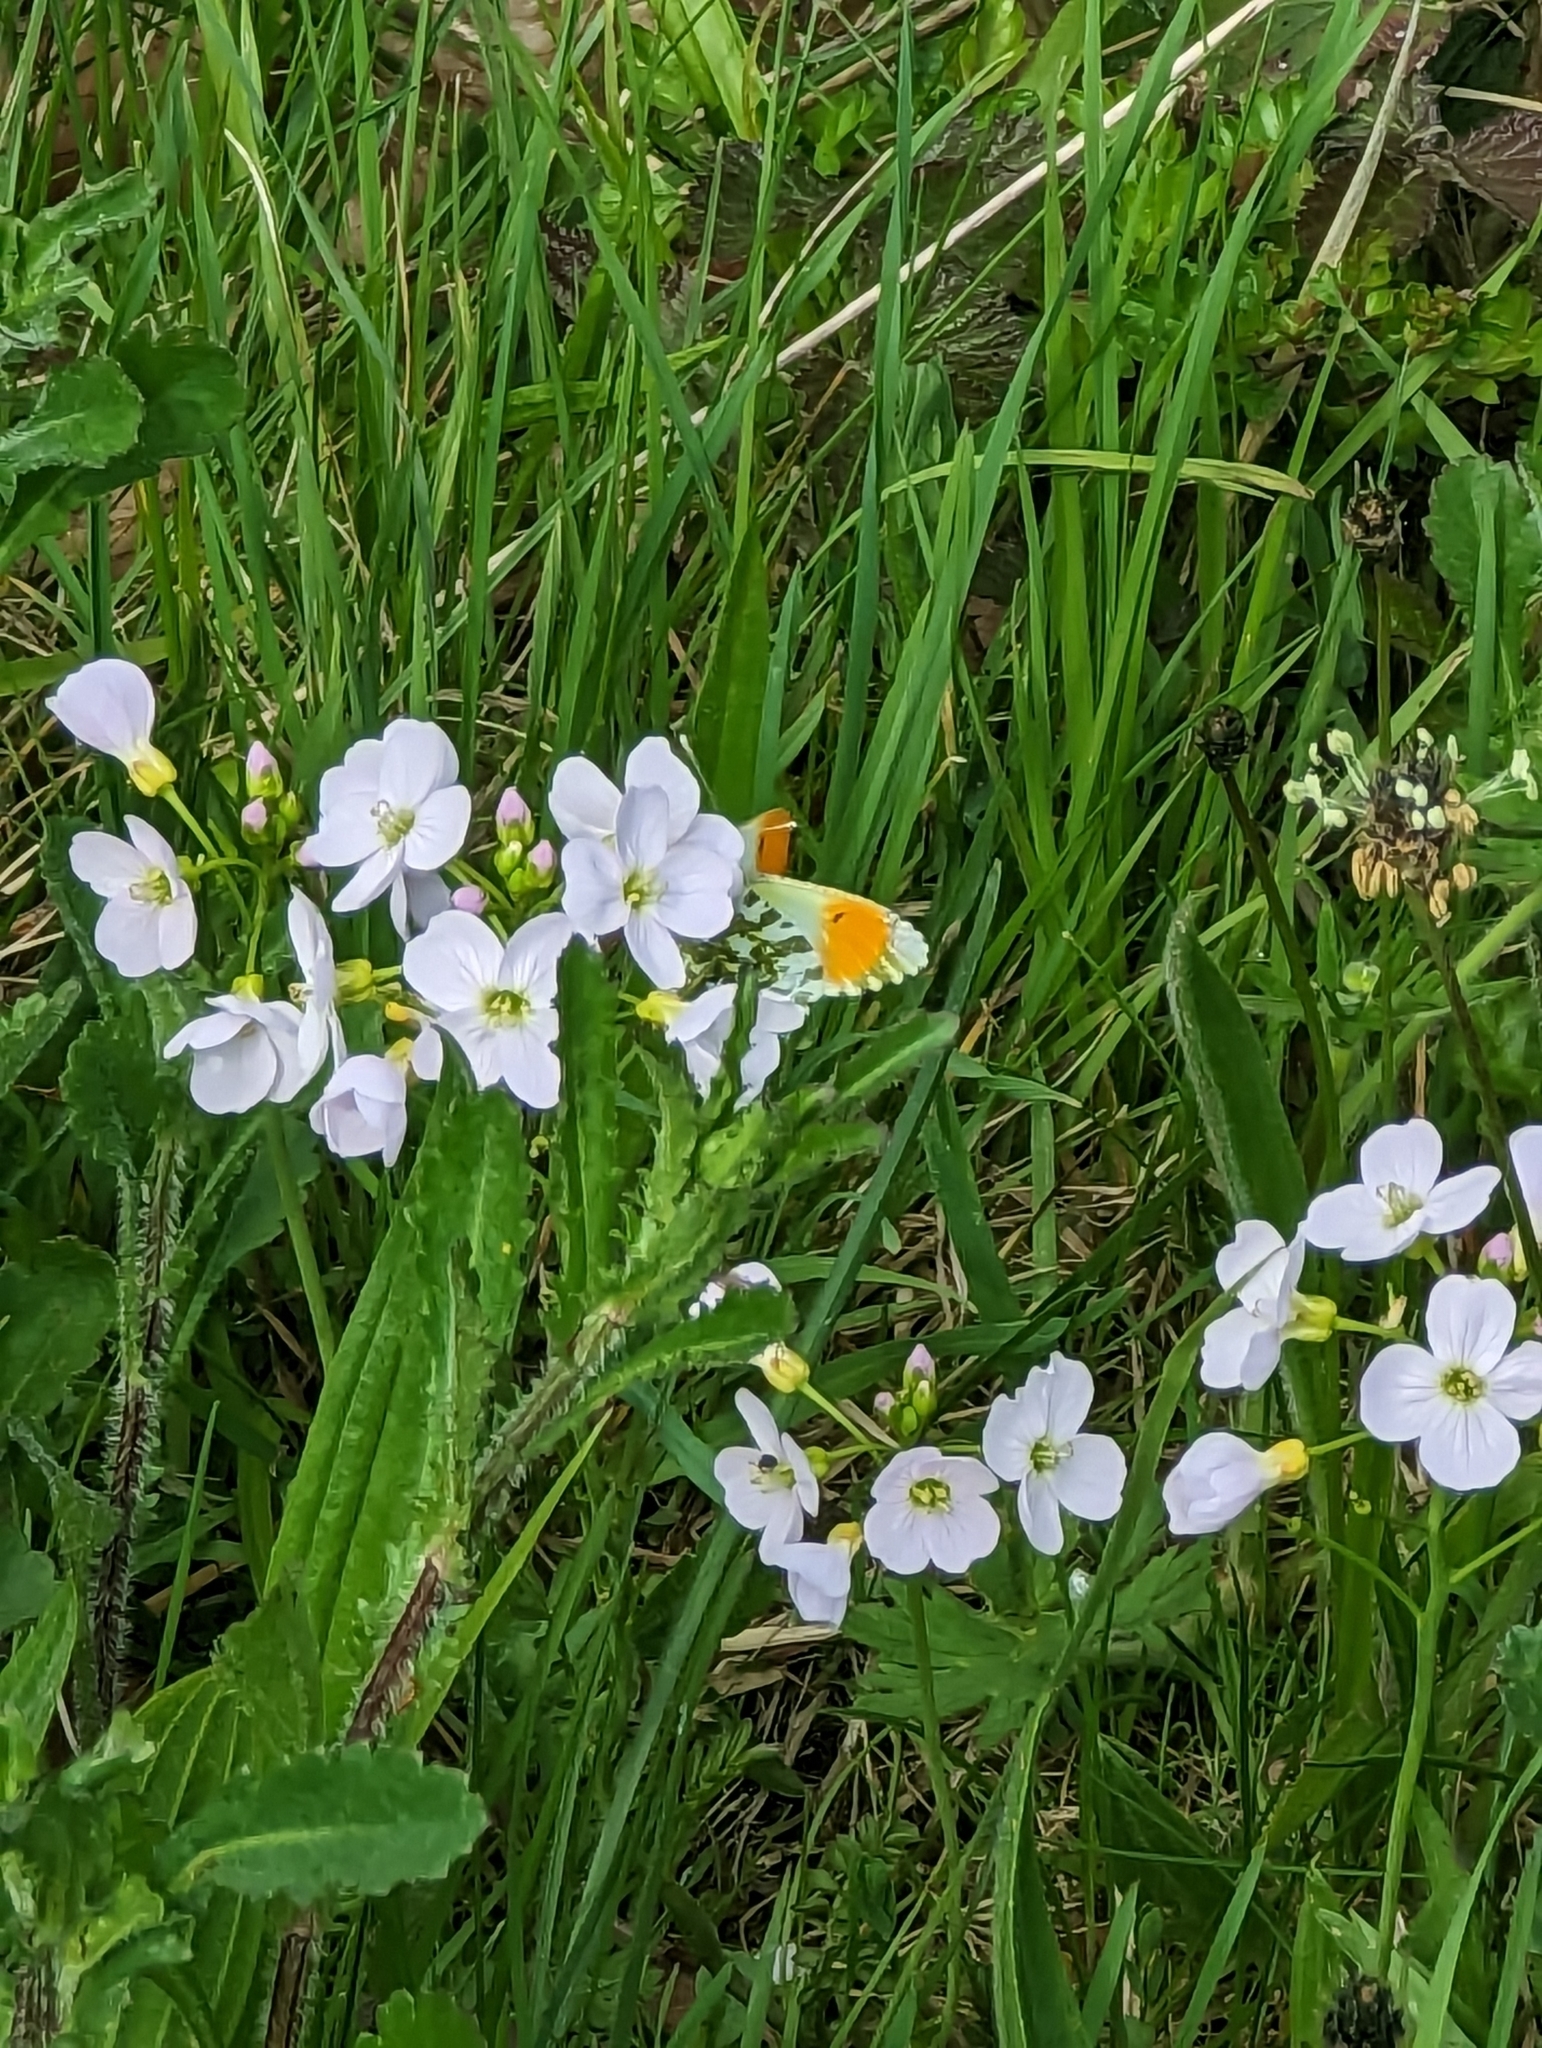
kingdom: Animalia
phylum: Arthropoda
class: Insecta
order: Lepidoptera
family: Pieridae
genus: Anthocharis
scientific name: Anthocharis cardamines
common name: Orange-tip
